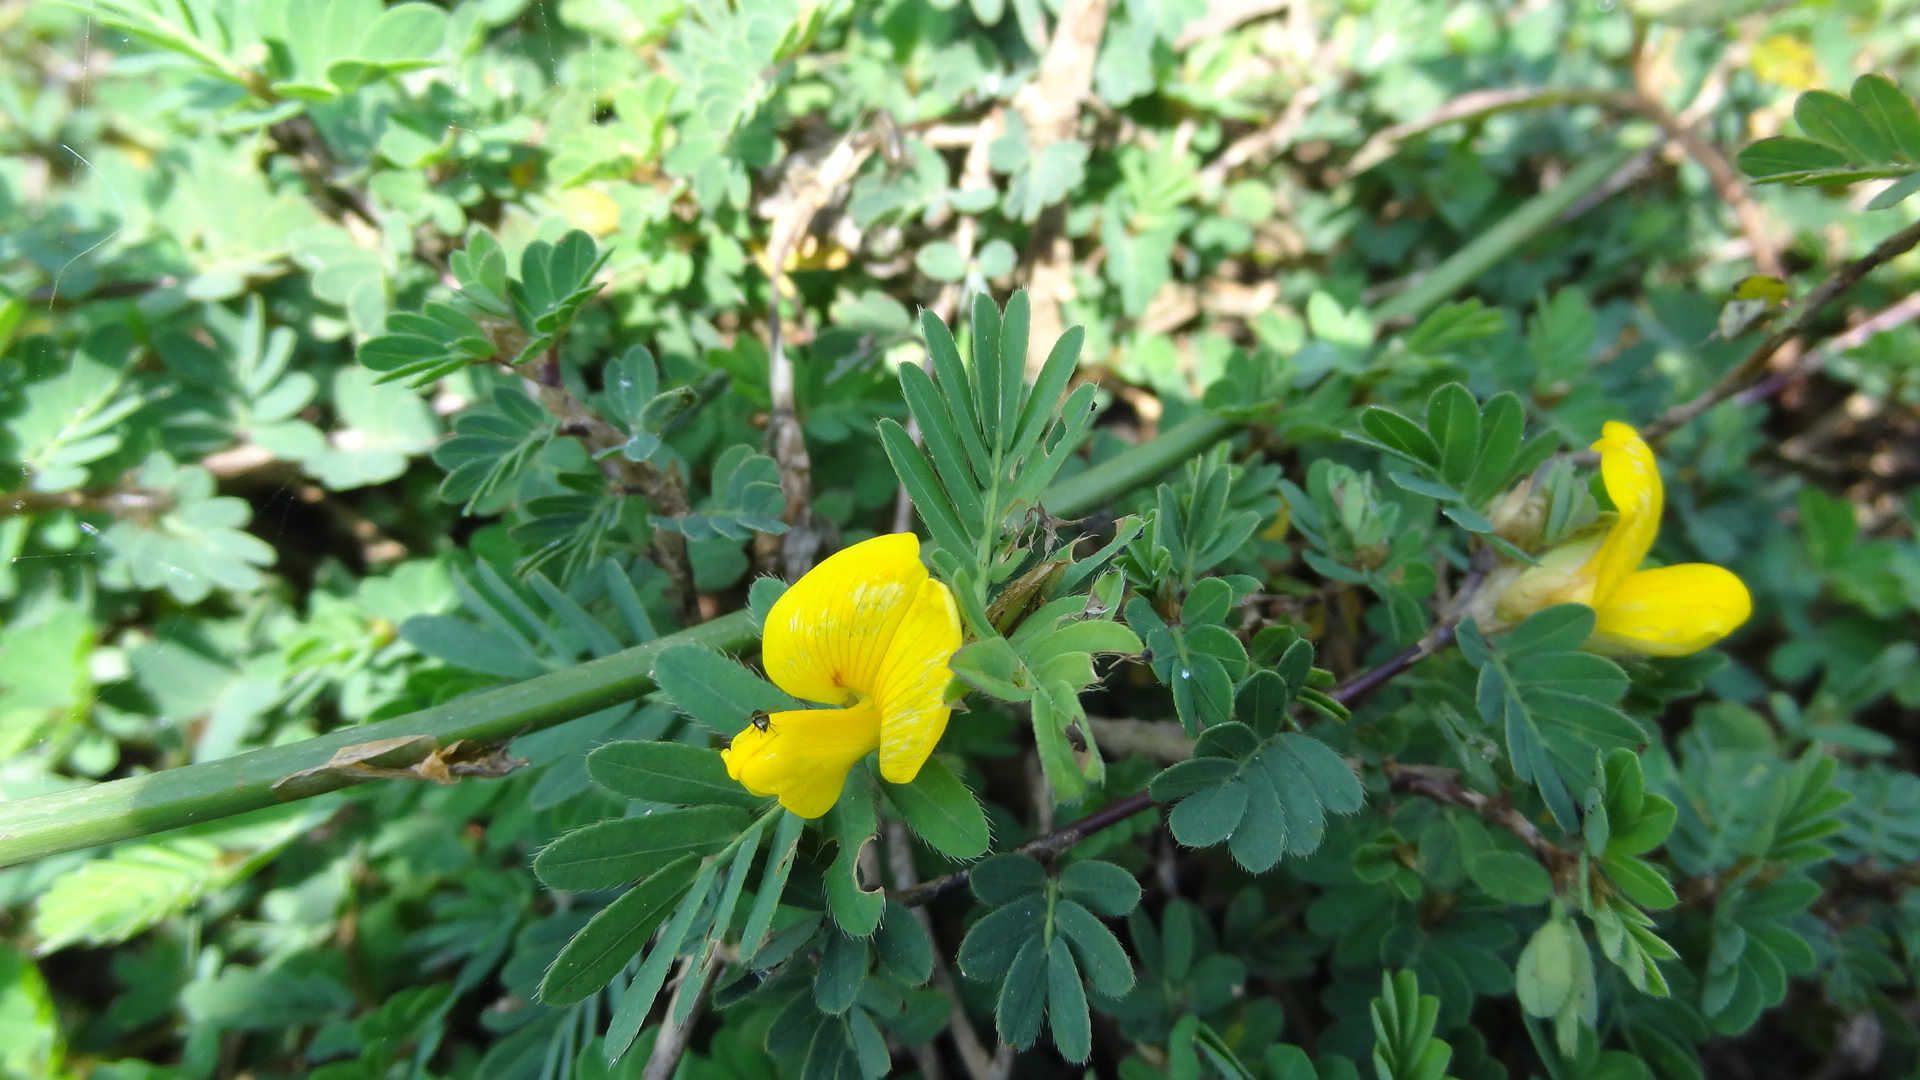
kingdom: Plantae
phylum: Tracheophyta
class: Magnoliopsida
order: Fabales
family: Fabaceae
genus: Smithia
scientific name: Smithia conferta
